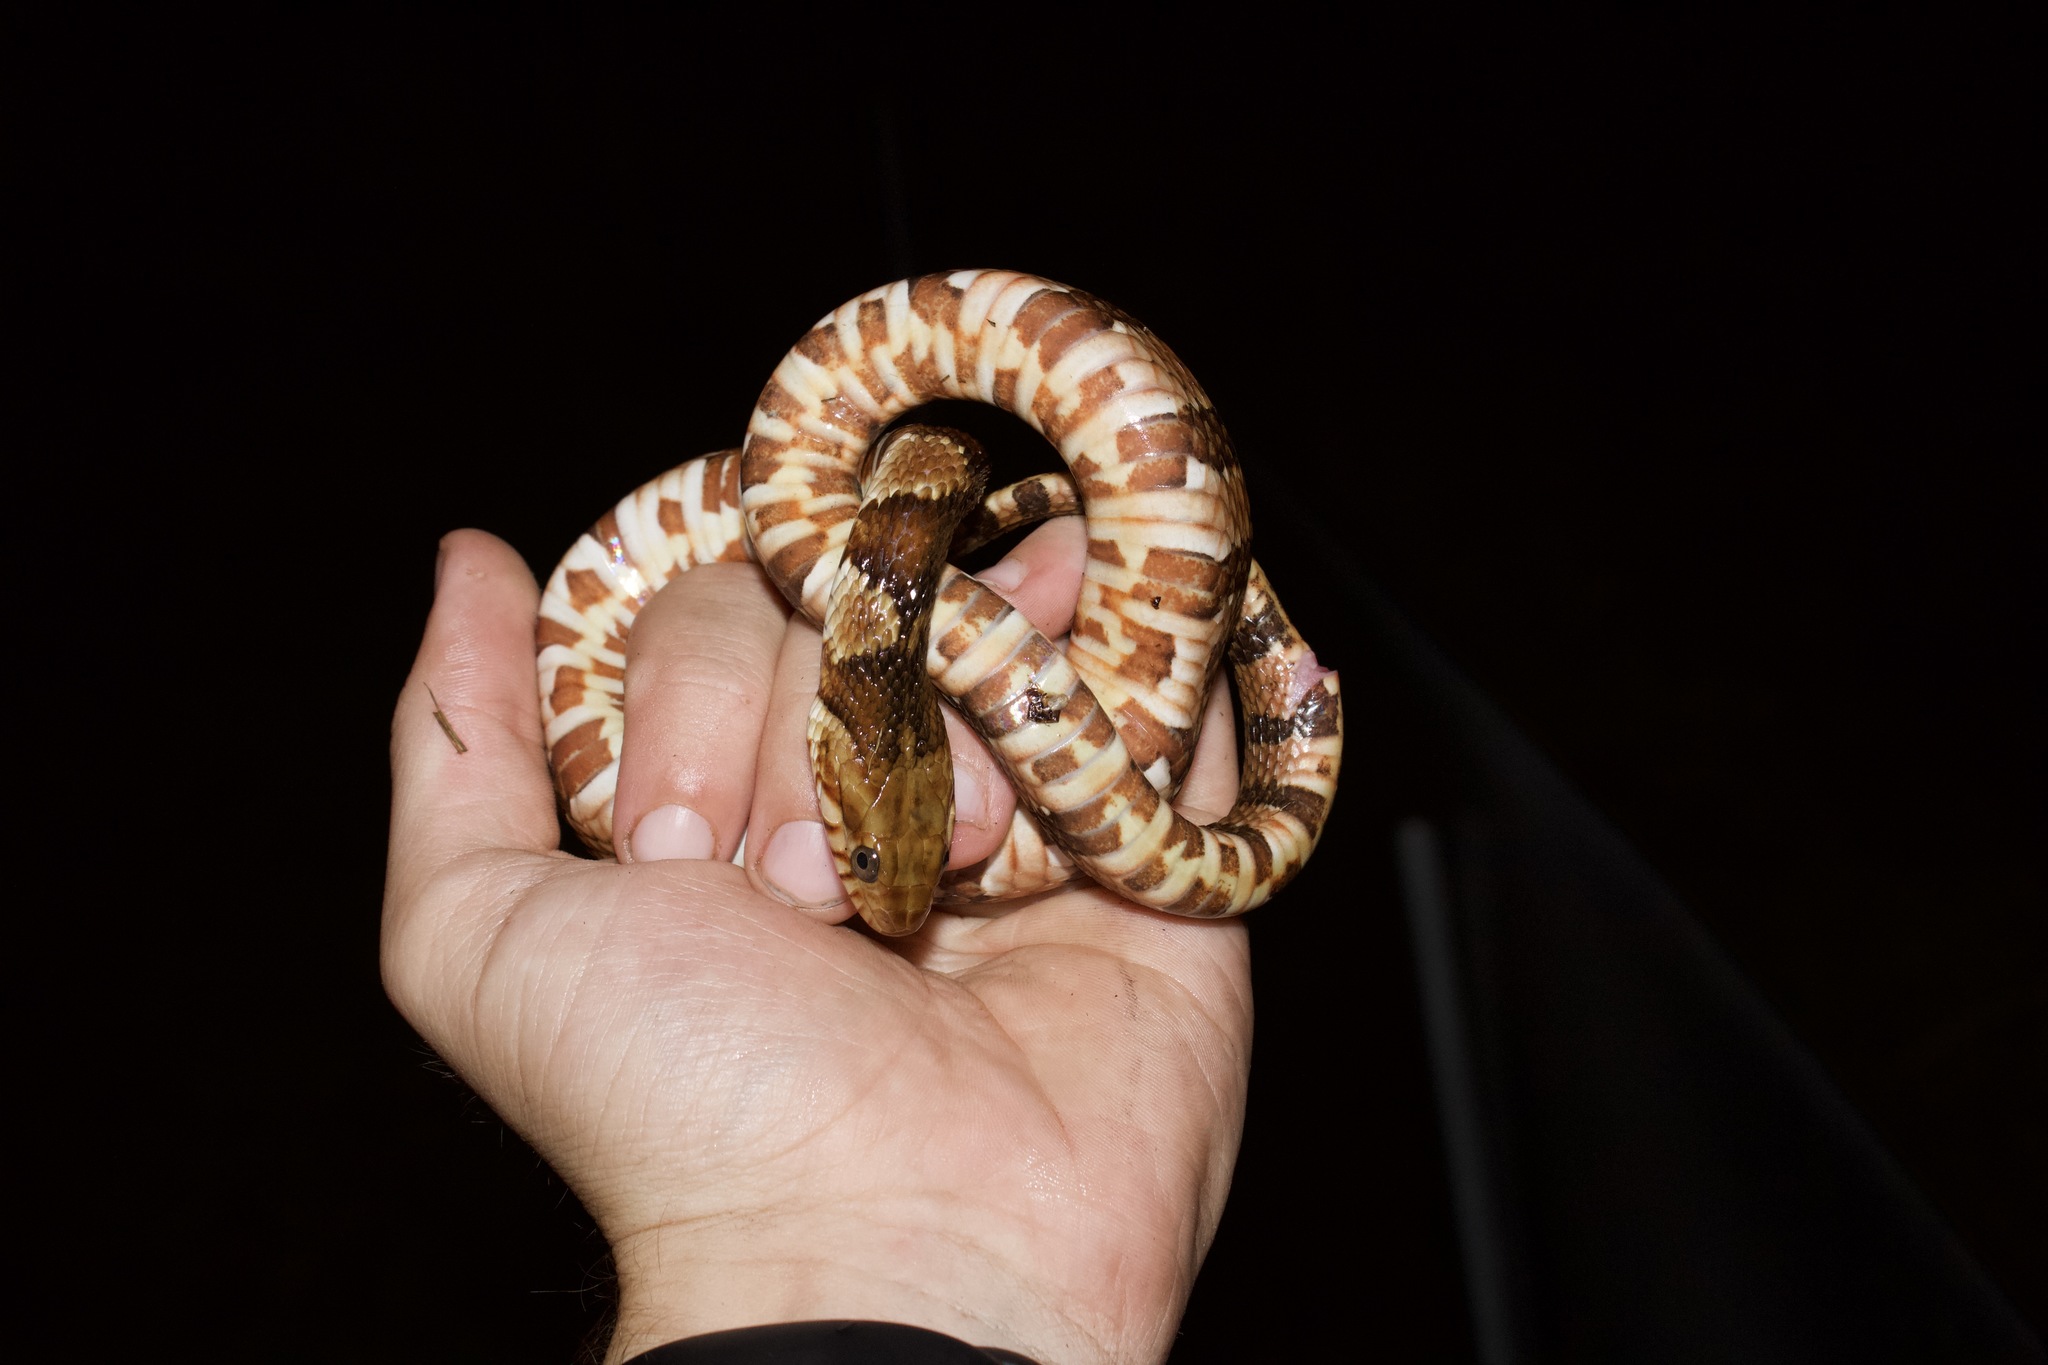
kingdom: Animalia
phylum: Chordata
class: Squamata
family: Colubridae
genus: Nerodia
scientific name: Nerodia fasciata
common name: Southern water snake
